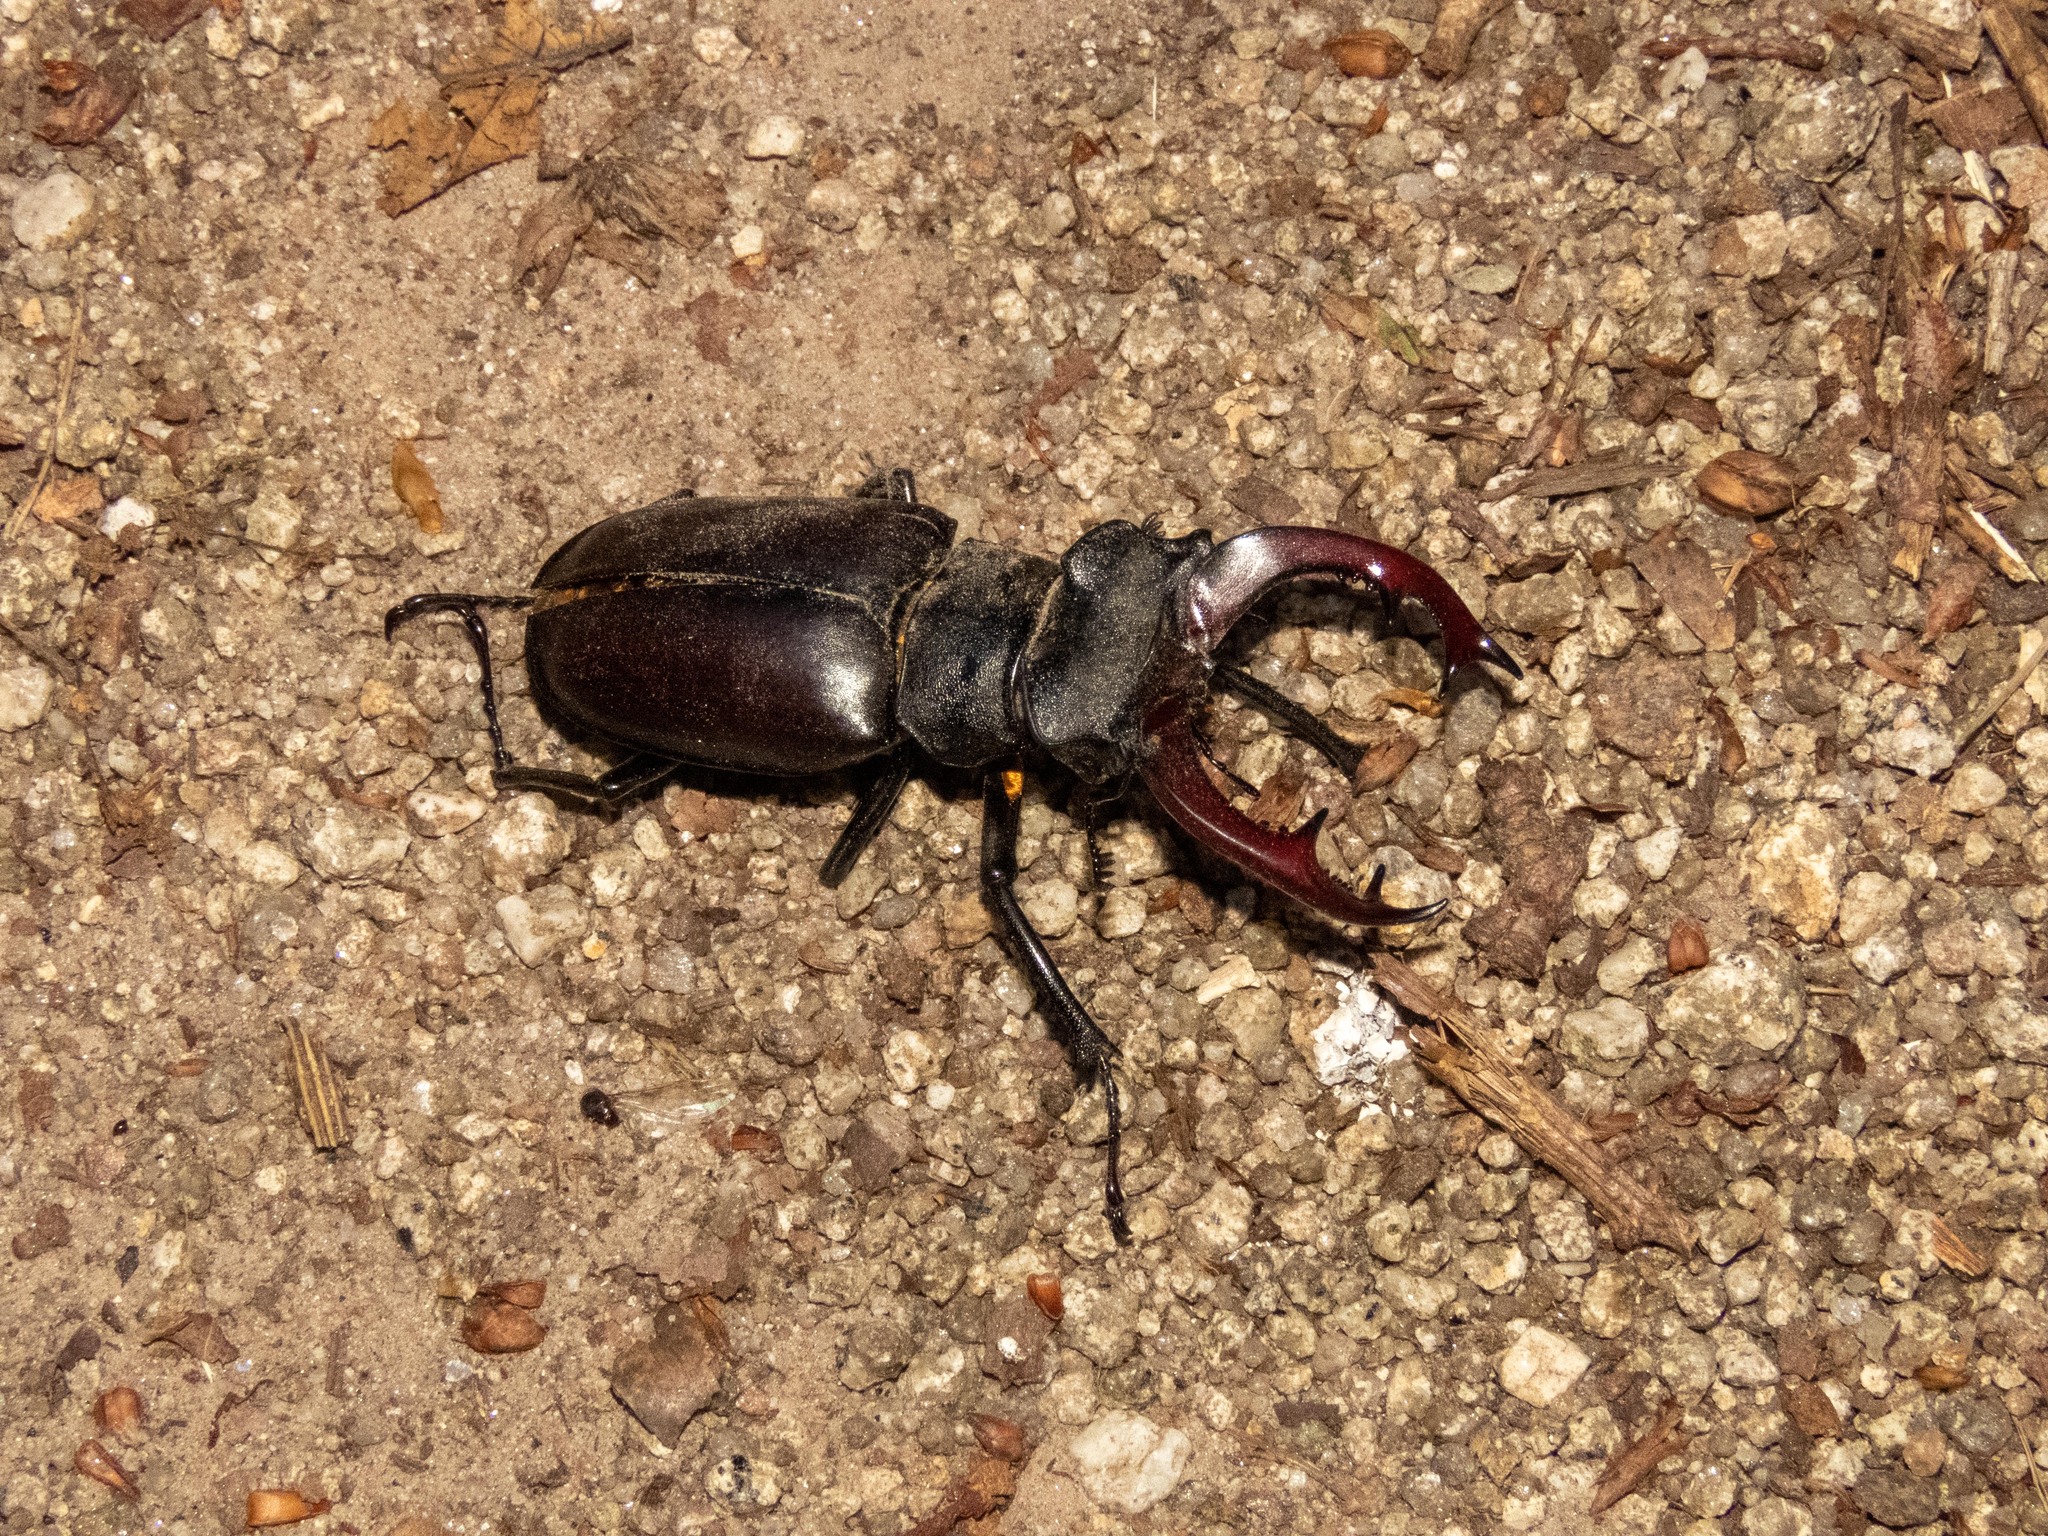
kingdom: Animalia
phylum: Arthropoda
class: Insecta
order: Coleoptera
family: Lucanidae
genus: Lucanus
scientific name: Lucanus cervus
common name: Stag beetle
